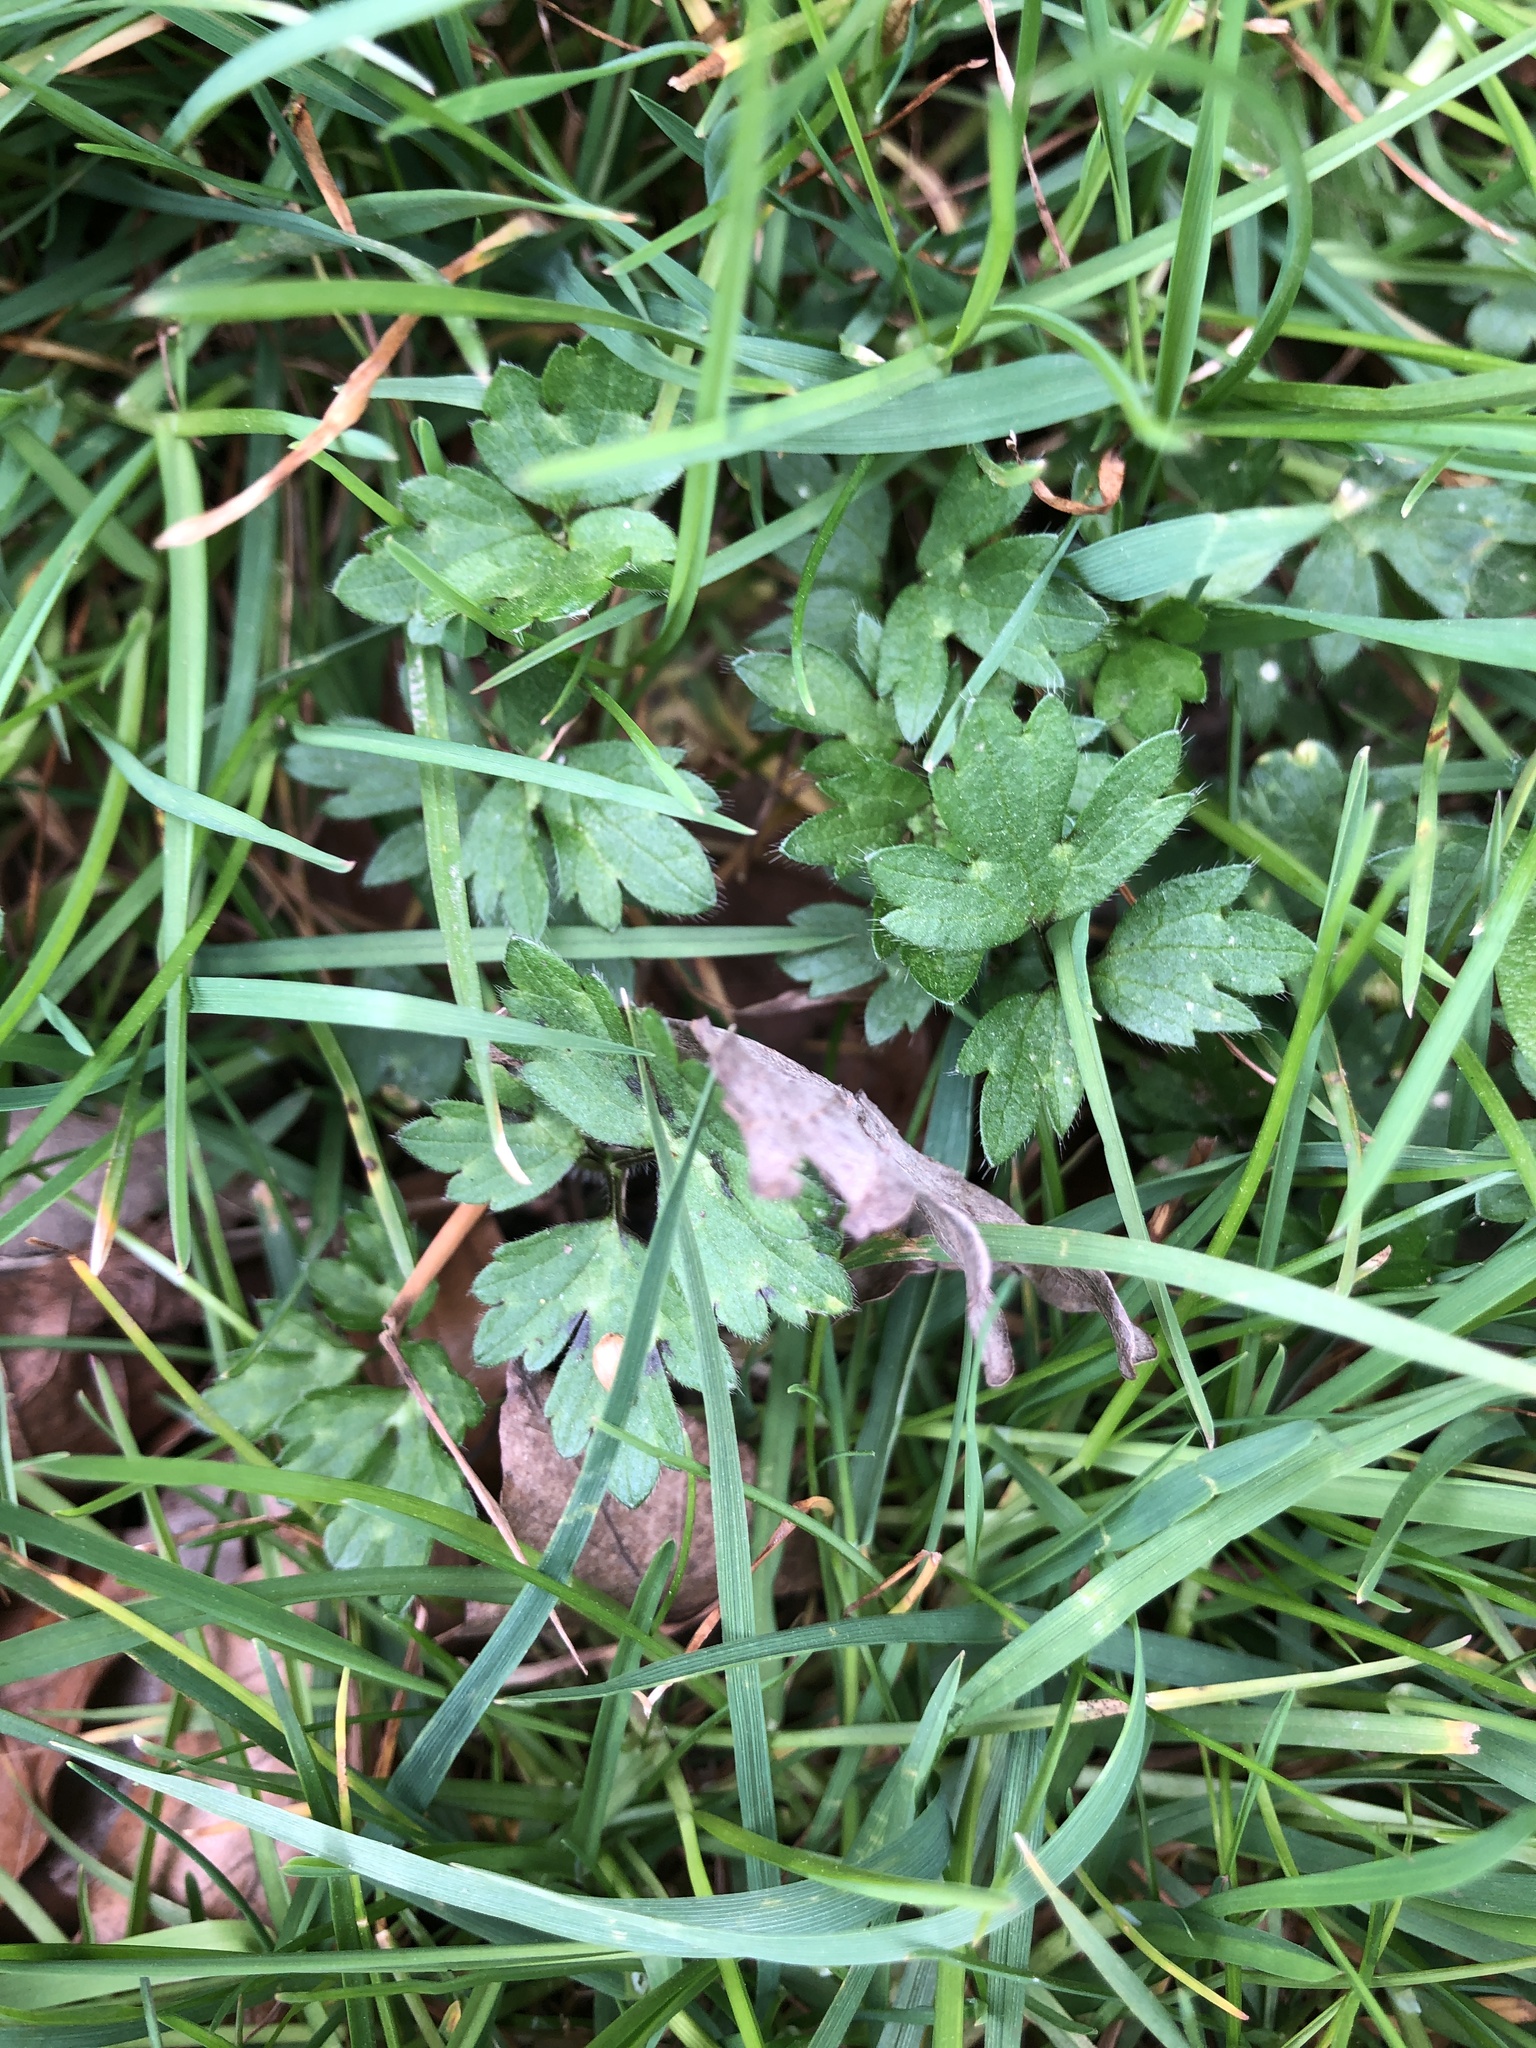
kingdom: Plantae
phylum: Tracheophyta
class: Magnoliopsida
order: Ranunculales
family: Ranunculaceae
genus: Ranunculus
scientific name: Ranunculus repens
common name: Creeping buttercup
